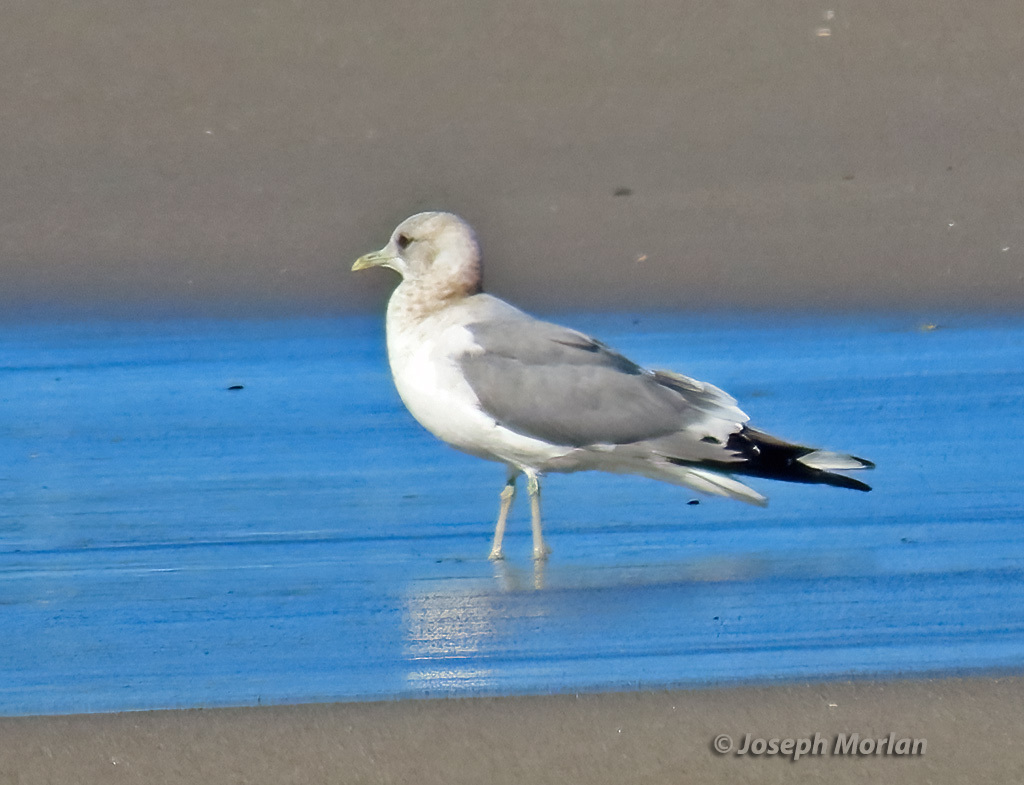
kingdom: Animalia
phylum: Chordata
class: Aves
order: Charadriiformes
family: Laridae
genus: Larus
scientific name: Larus brachyrhynchus
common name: Short-billed gull
